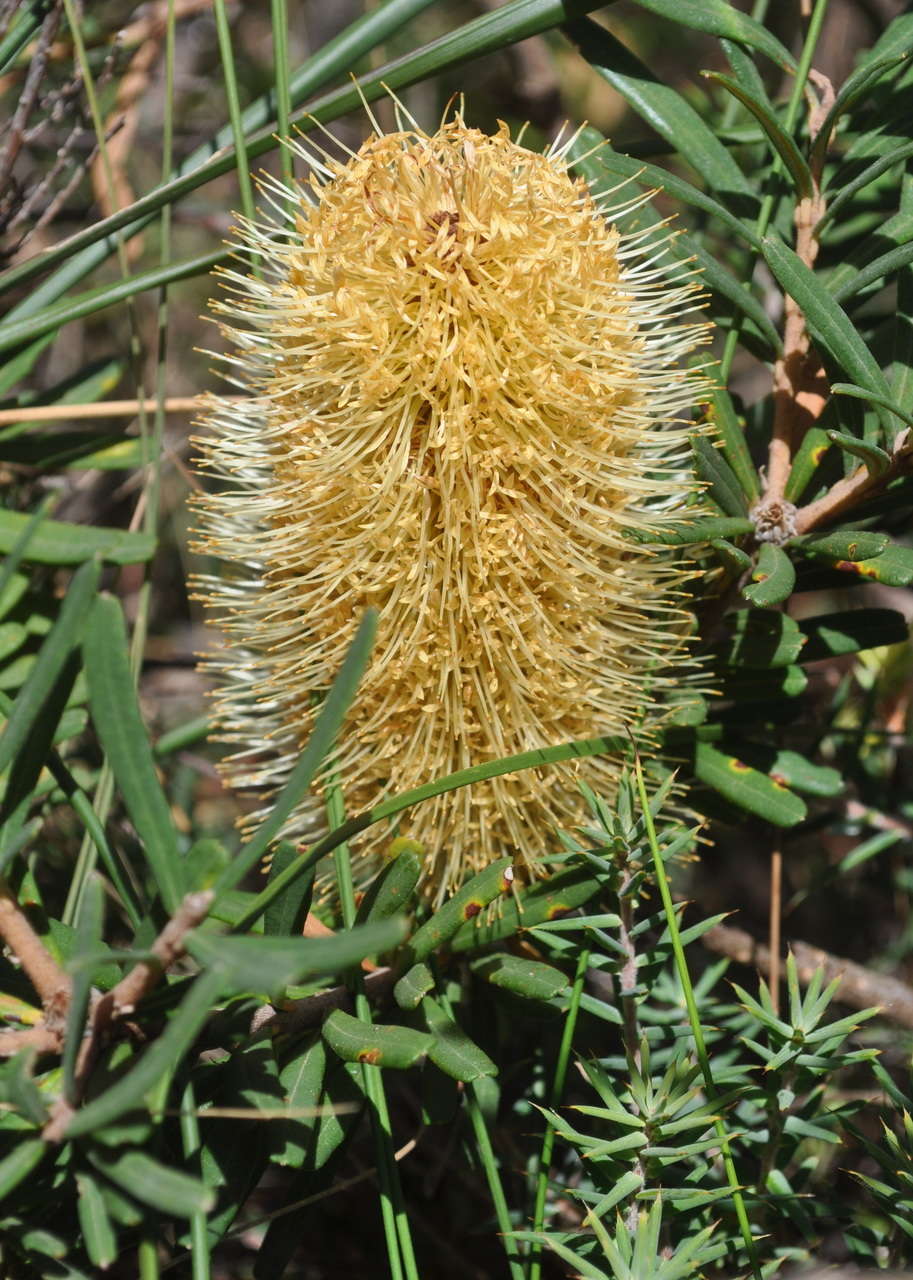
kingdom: Plantae
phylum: Tracheophyta
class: Magnoliopsida
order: Proteales
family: Proteaceae
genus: Banksia
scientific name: Banksia marginata
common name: Silver banksia
